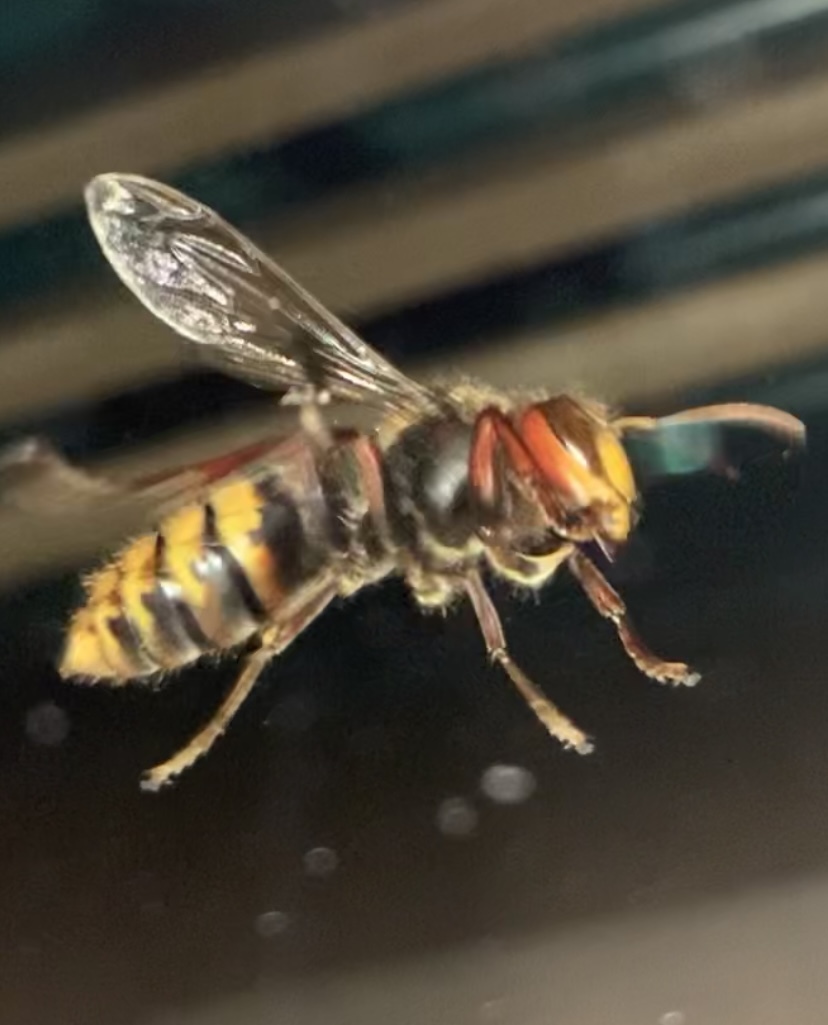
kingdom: Animalia
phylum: Arthropoda
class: Insecta
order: Hymenoptera
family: Vespidae
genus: Vespa
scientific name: Vespa crabro
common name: Hornet
